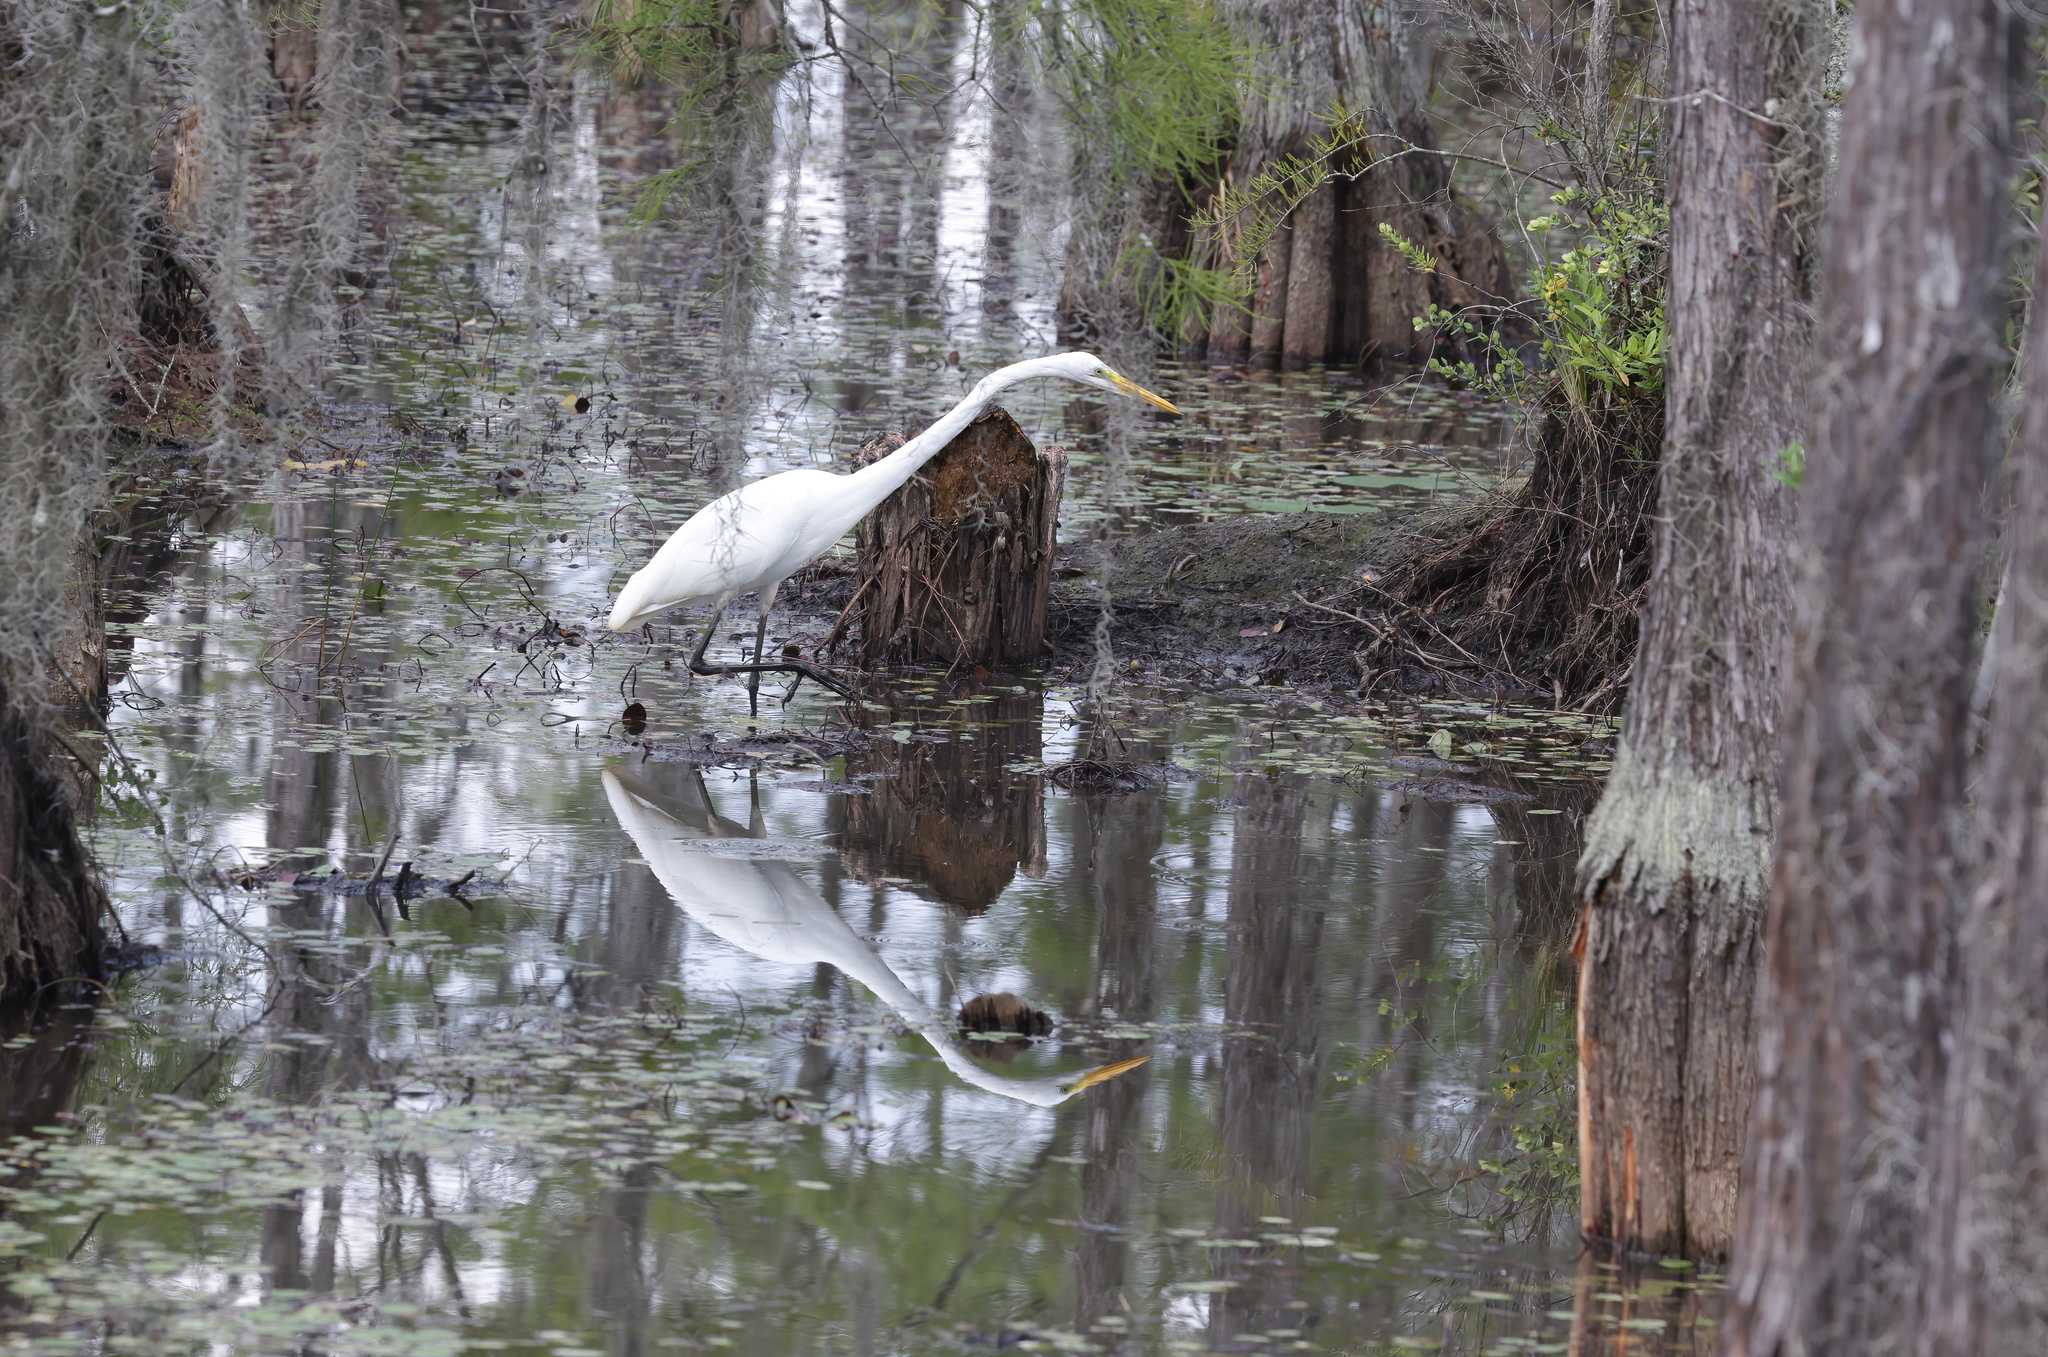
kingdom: Animalia
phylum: Chordata
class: Aves
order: Pelecaniformes
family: Ardeidae
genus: Ardea
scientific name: Ardea alba
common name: Great egret
